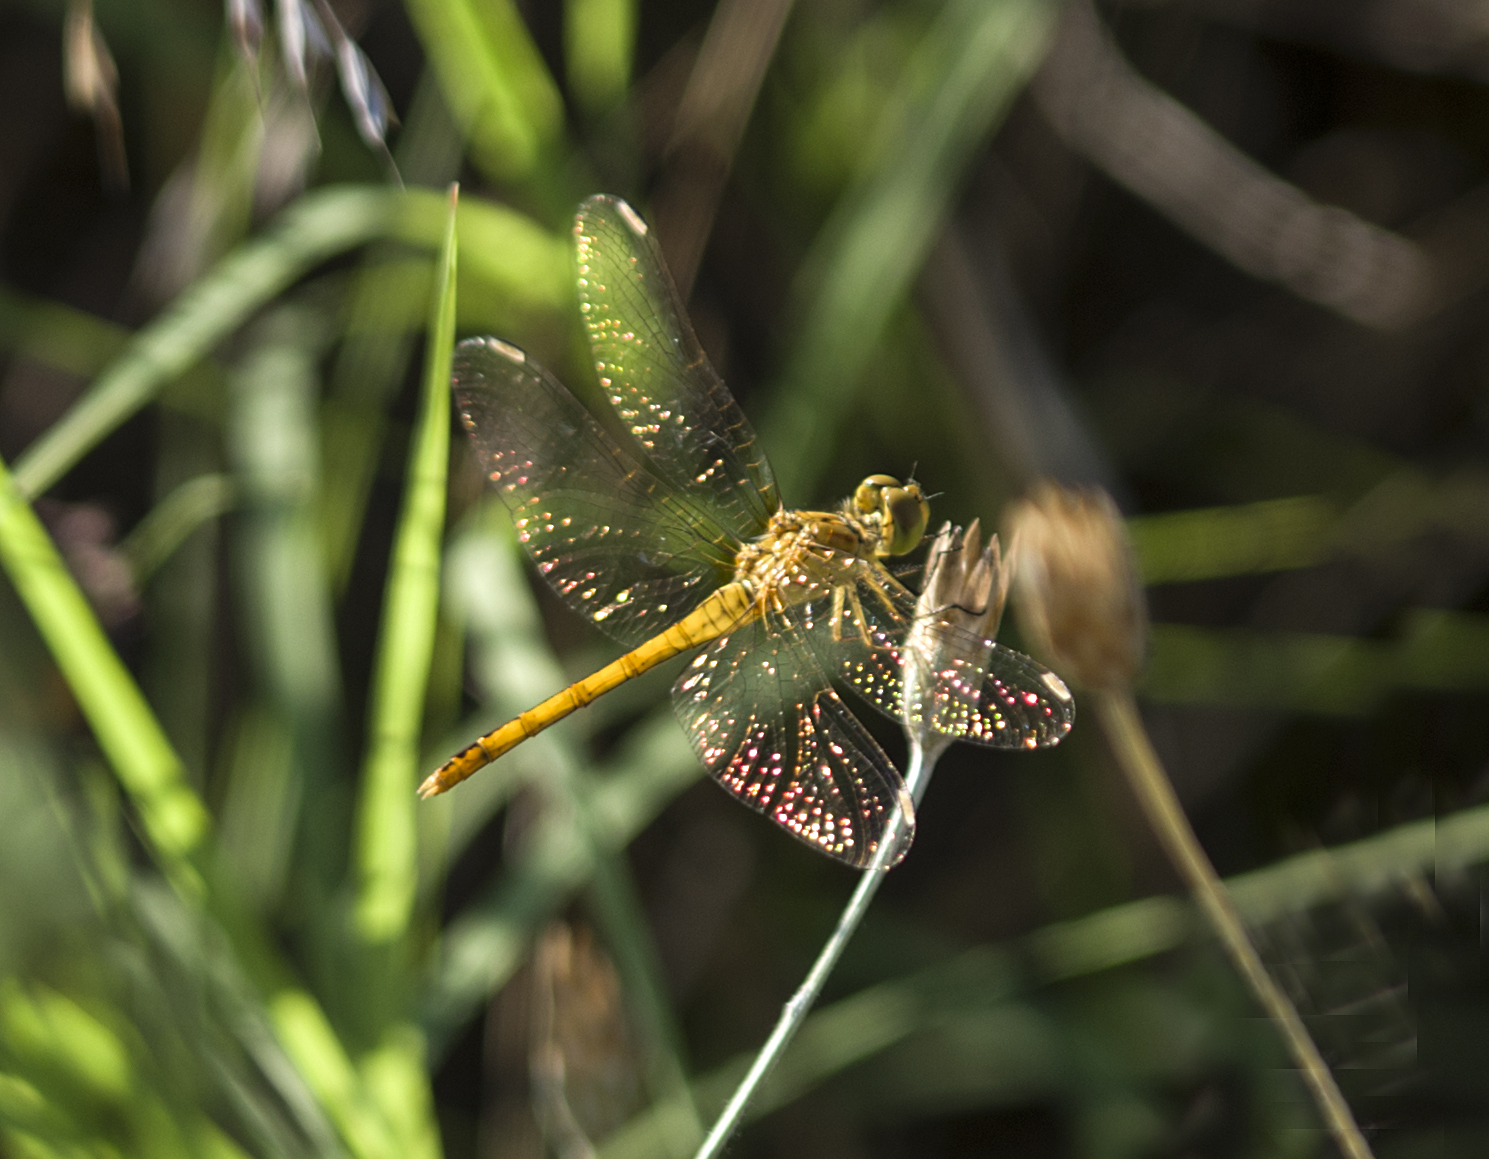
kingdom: Animalia
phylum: Arthropoda
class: Insecta
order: Odonata
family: Libellulidae
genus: Sympetrum
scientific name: Sympetrum meridionale
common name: Southern darter
